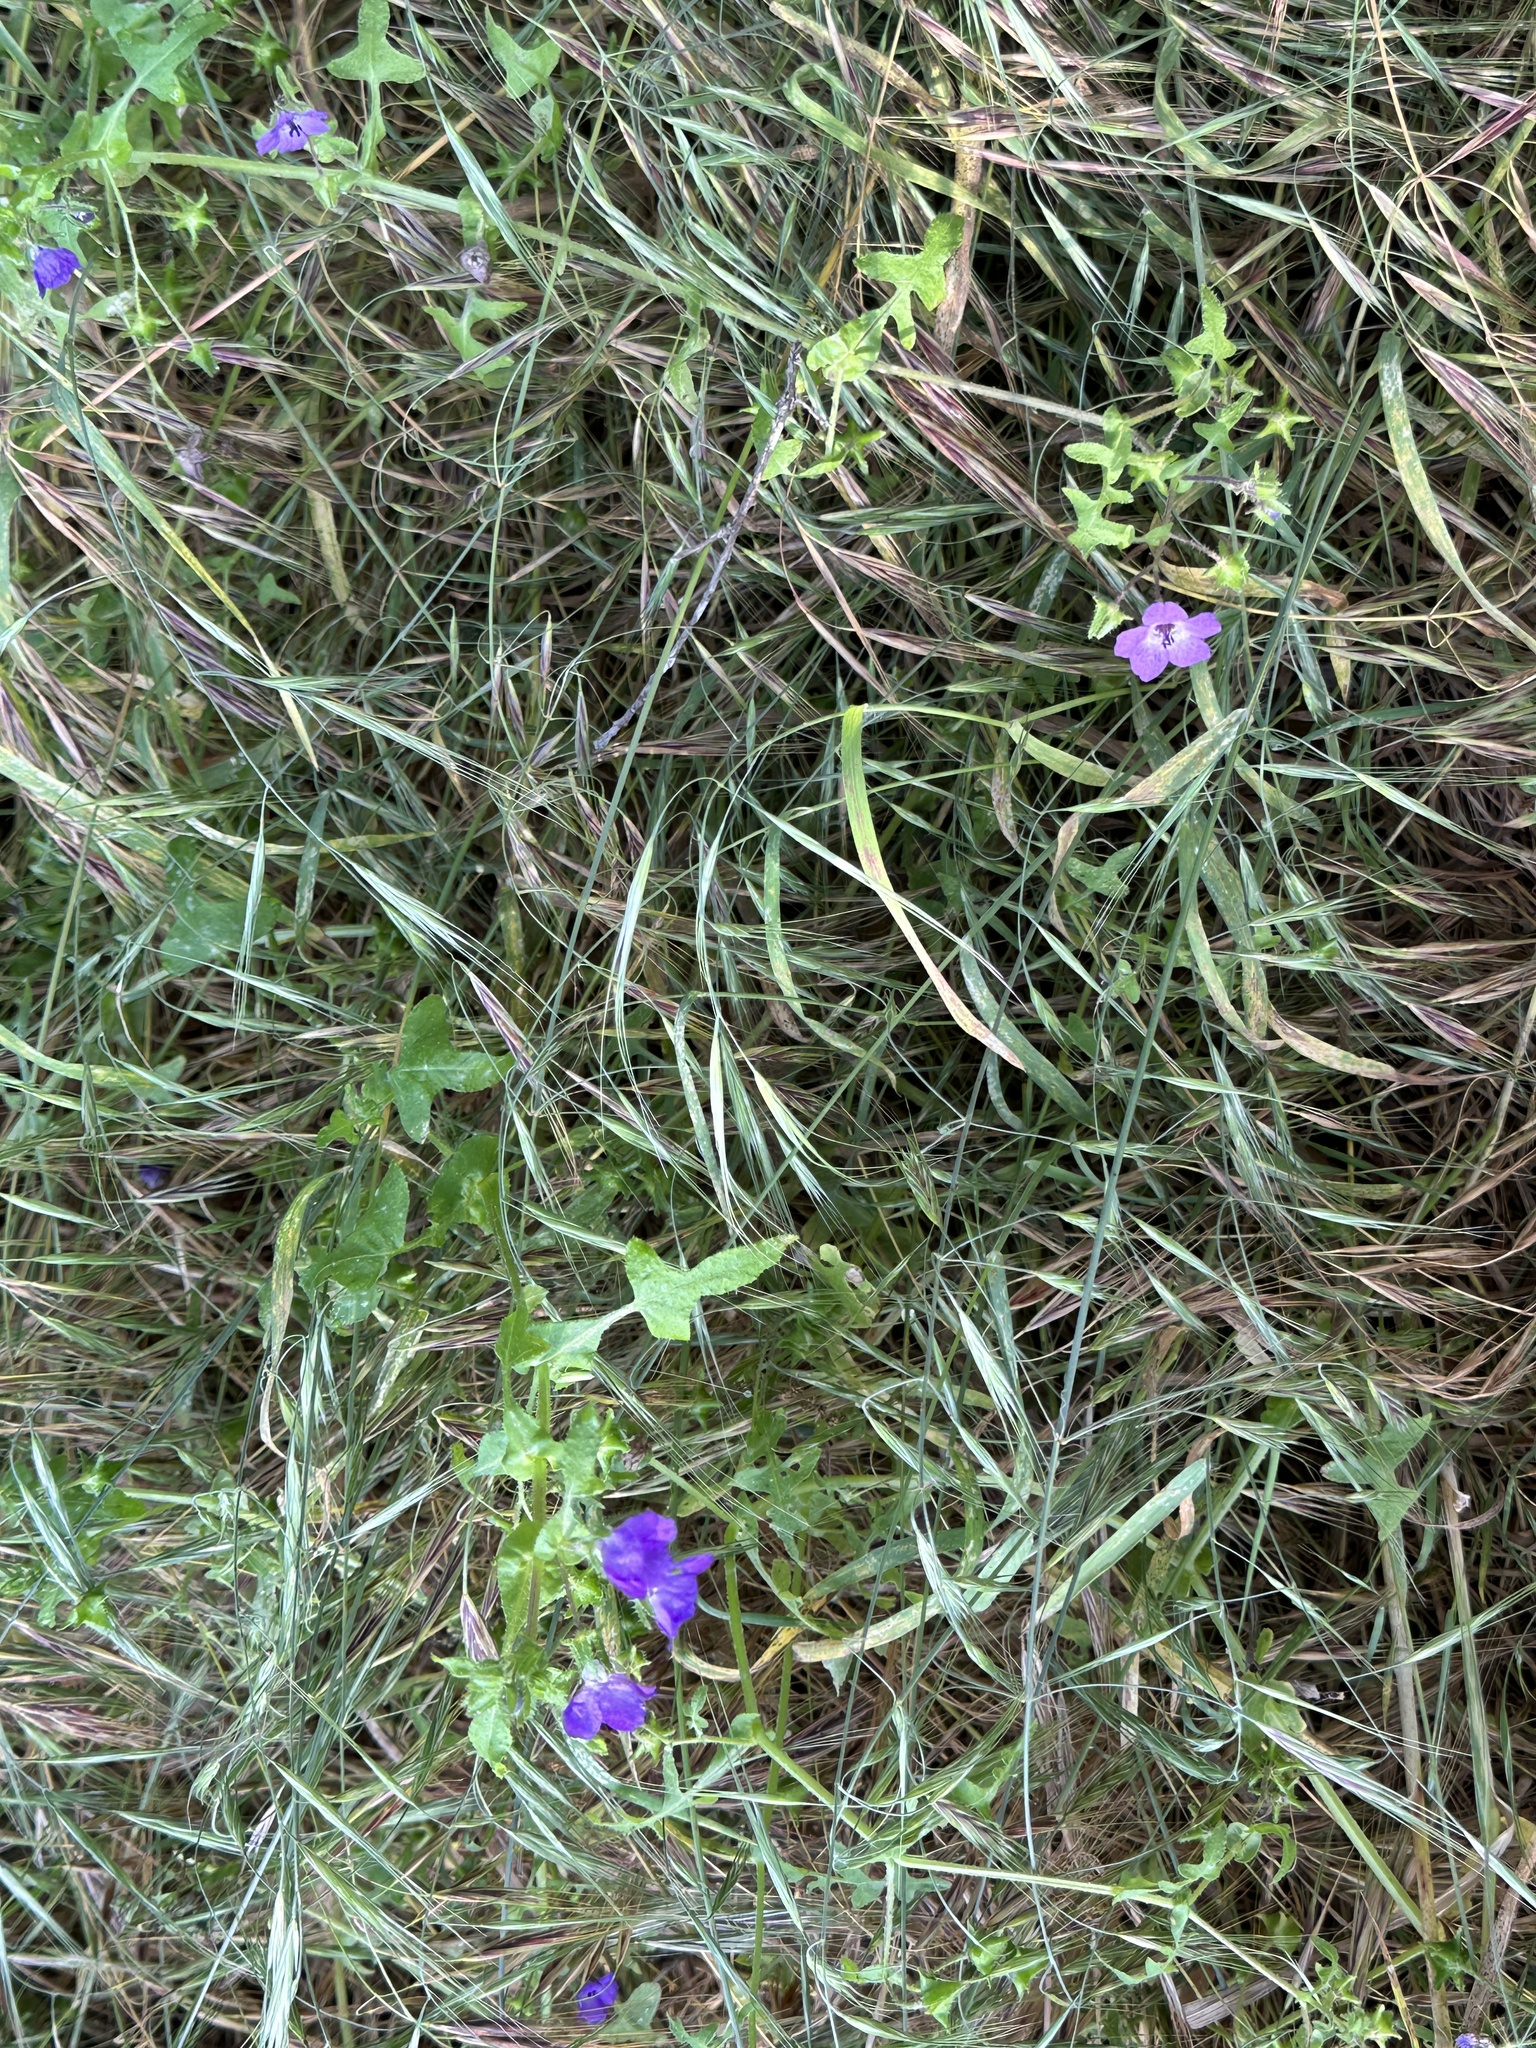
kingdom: Plantae
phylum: Tracheophyta
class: Magnoliopsida
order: Boraginales
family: Hydrophyllaceae
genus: Pholistoma
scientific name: Pholistoma auritum
